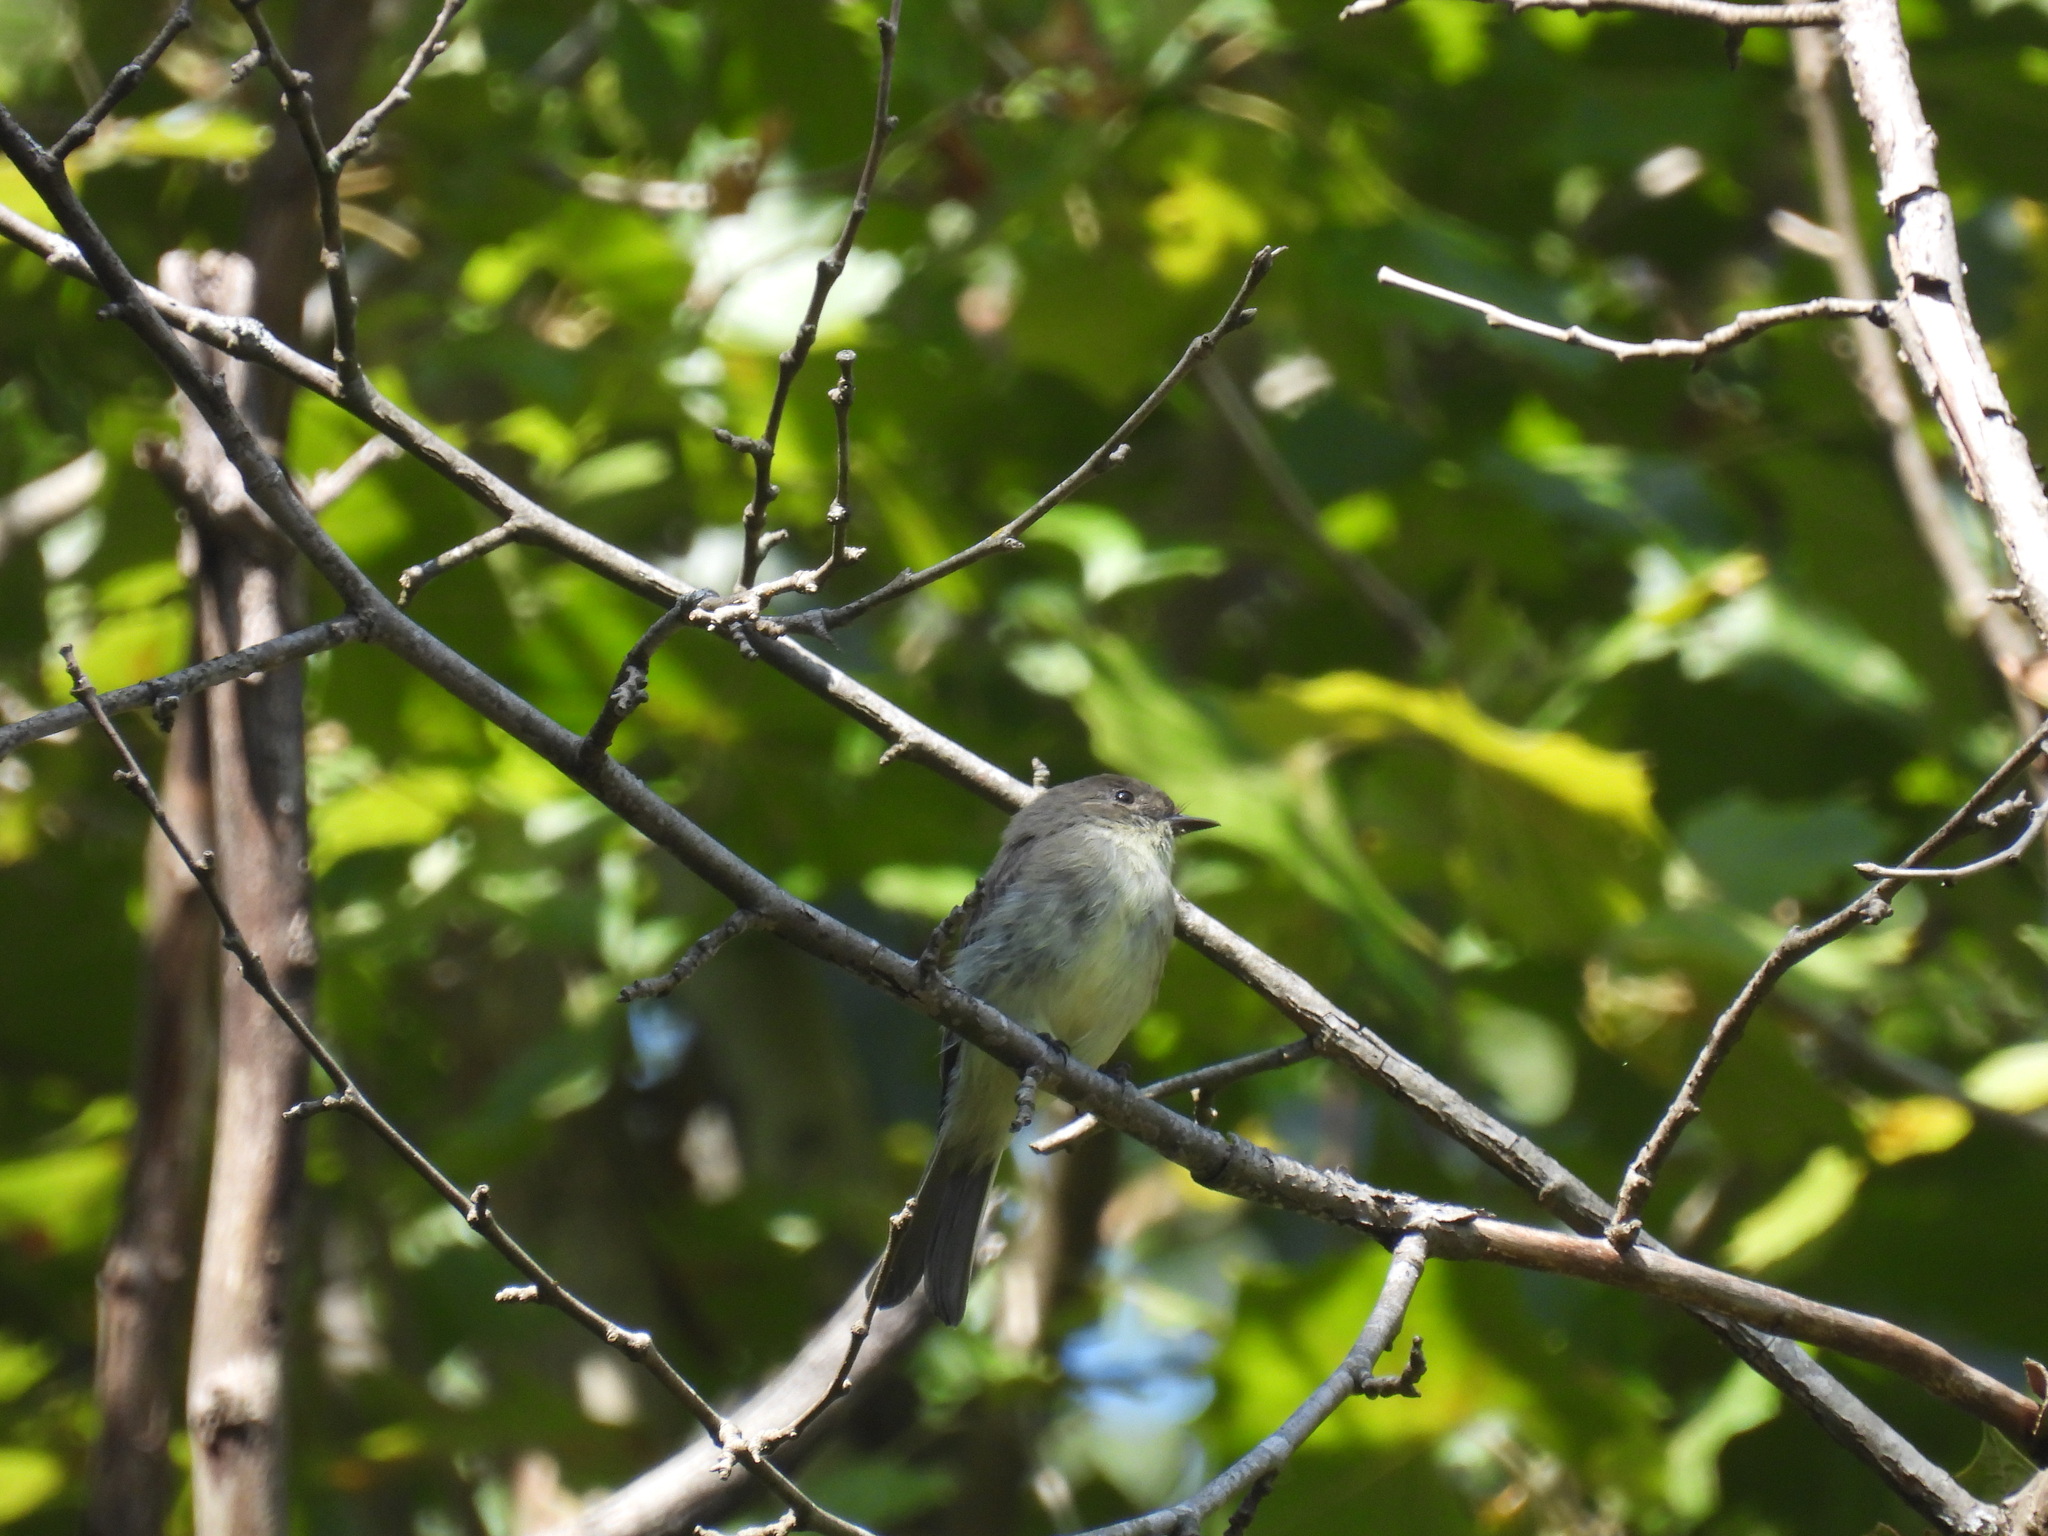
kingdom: Animalia
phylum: Chordata
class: Aves
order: Passeriformes
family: Tyrannidae
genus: Sayornis
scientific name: Sayornis phoebe
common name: Eastern phoebe
